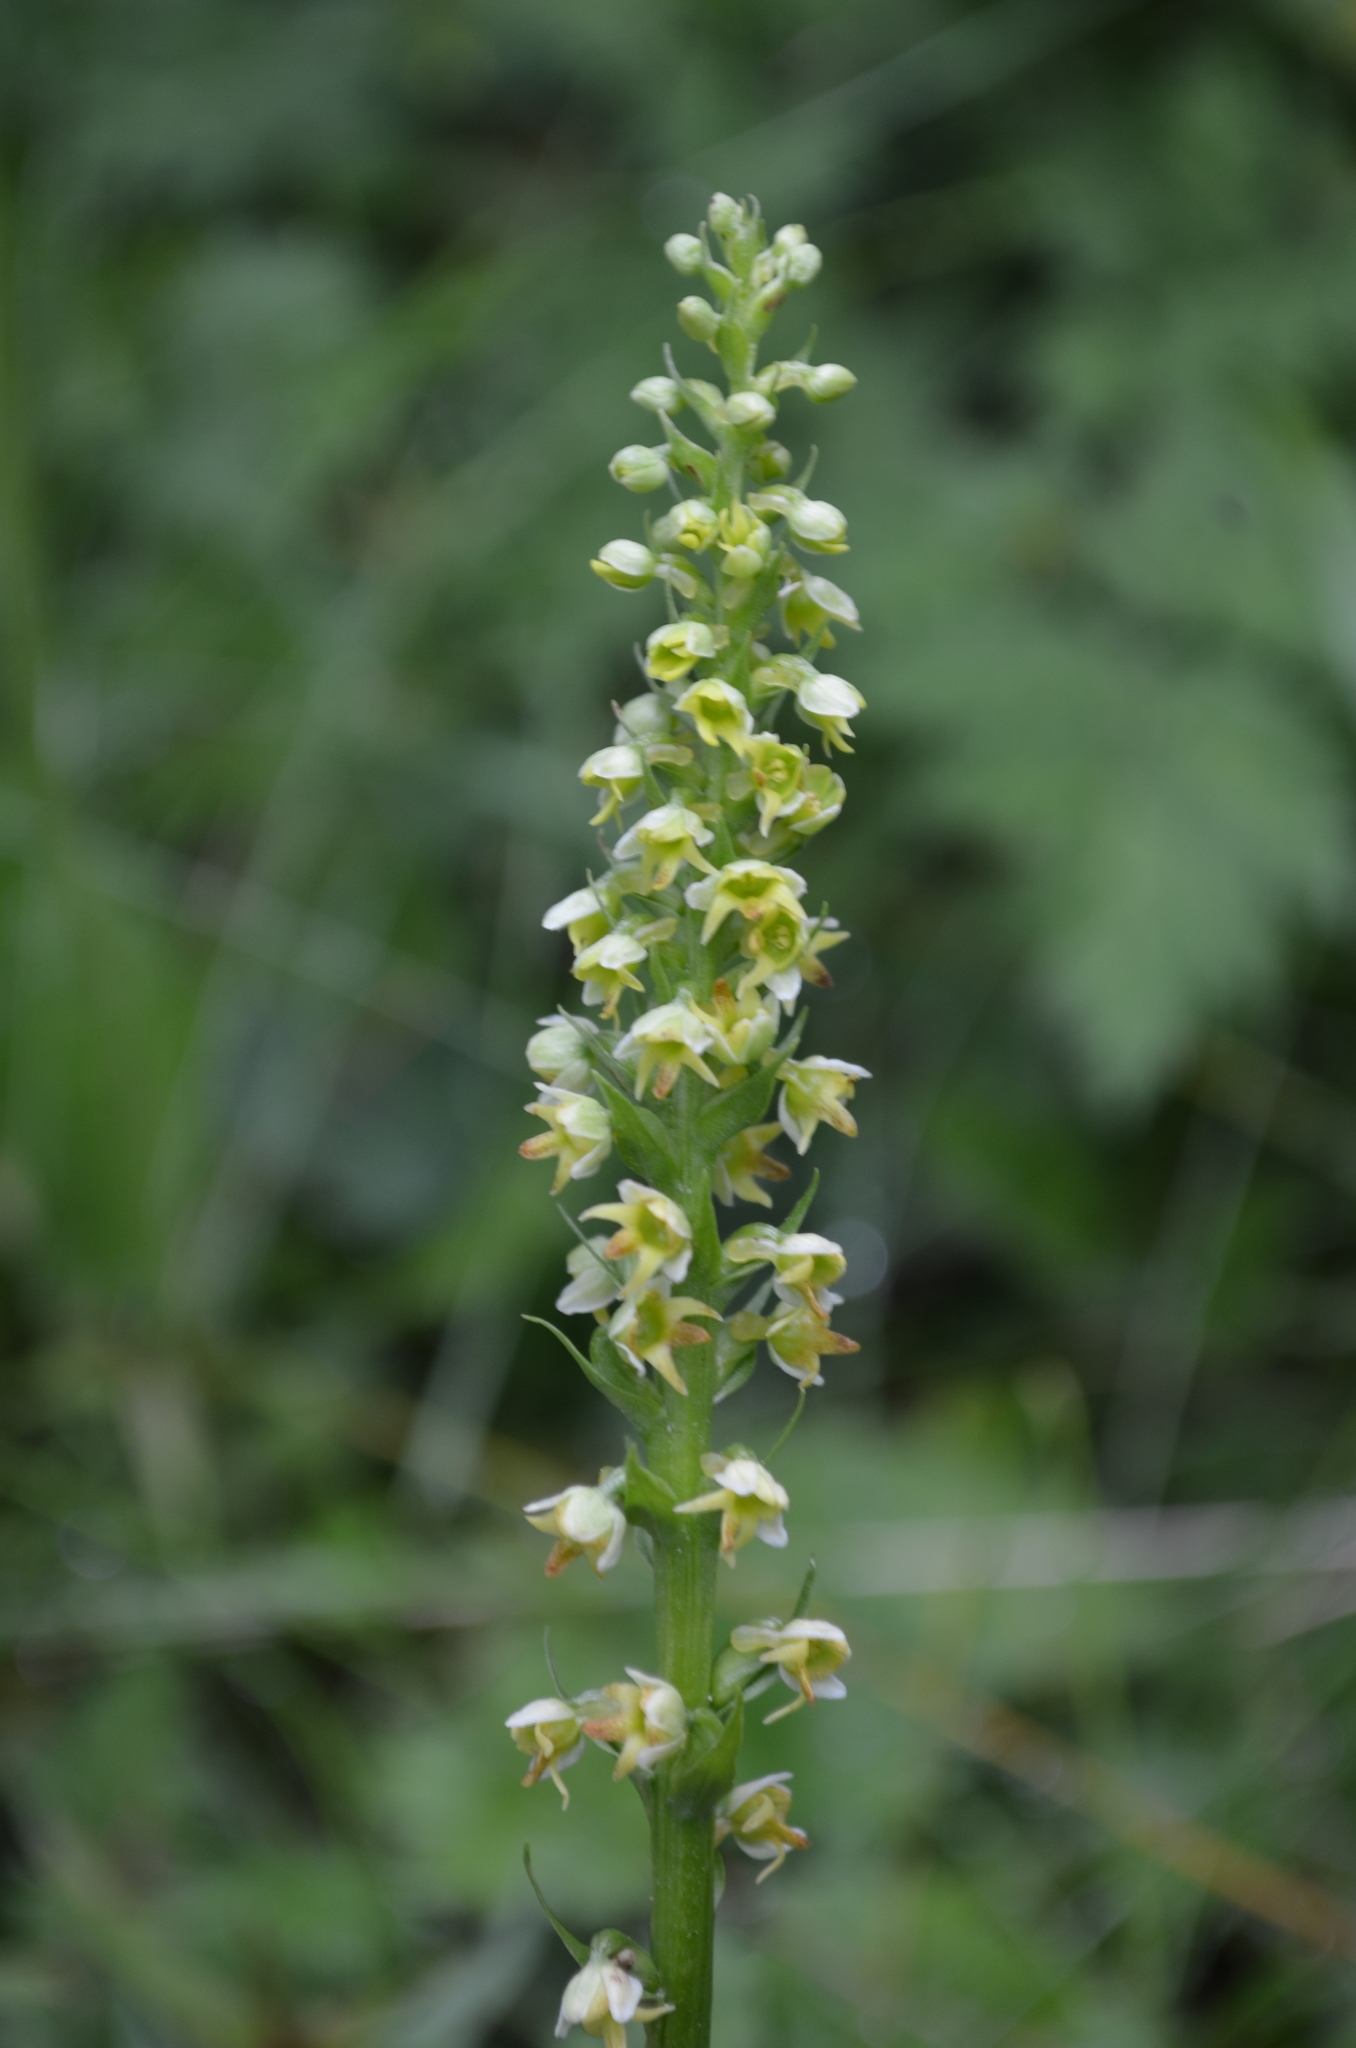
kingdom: Plantae
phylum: Tracheophyta
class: Liliopsida
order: Asparagales
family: Orchidaceae
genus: Pseudorchis
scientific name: Pseudorchis albida
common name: Small-white orchid
